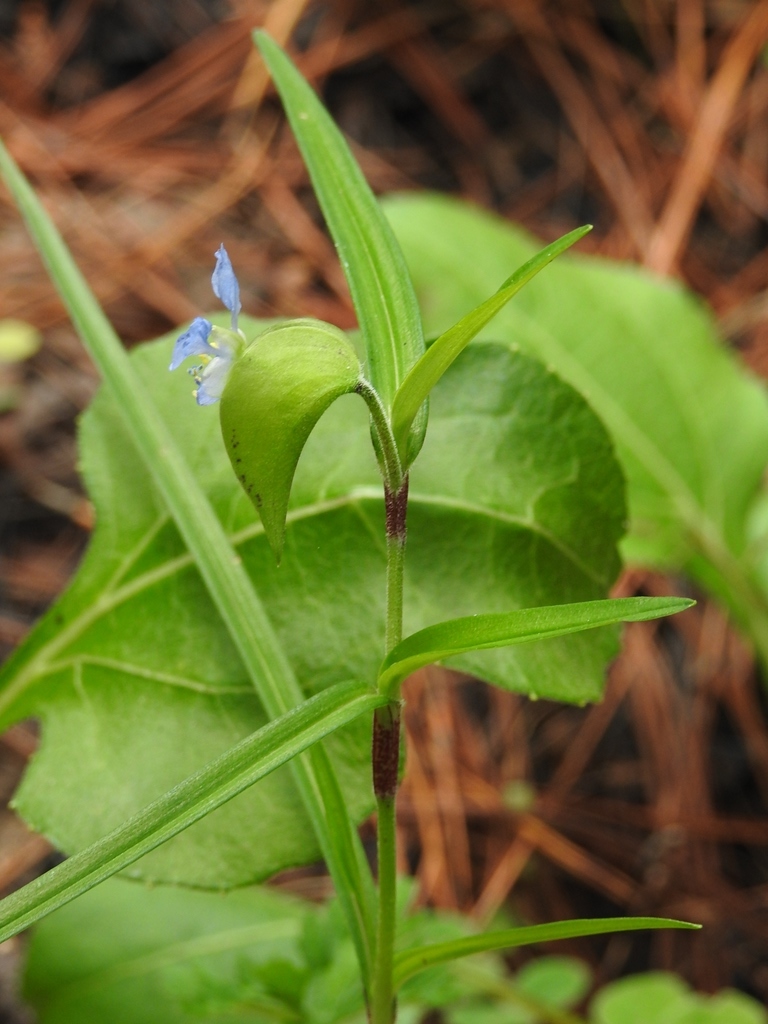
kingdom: Plantae
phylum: Tracheophyta
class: Liliopsida
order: Commelinales
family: Commelinaceae
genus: Commelina
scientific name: Commelina erecta
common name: Blousel blommetjie
